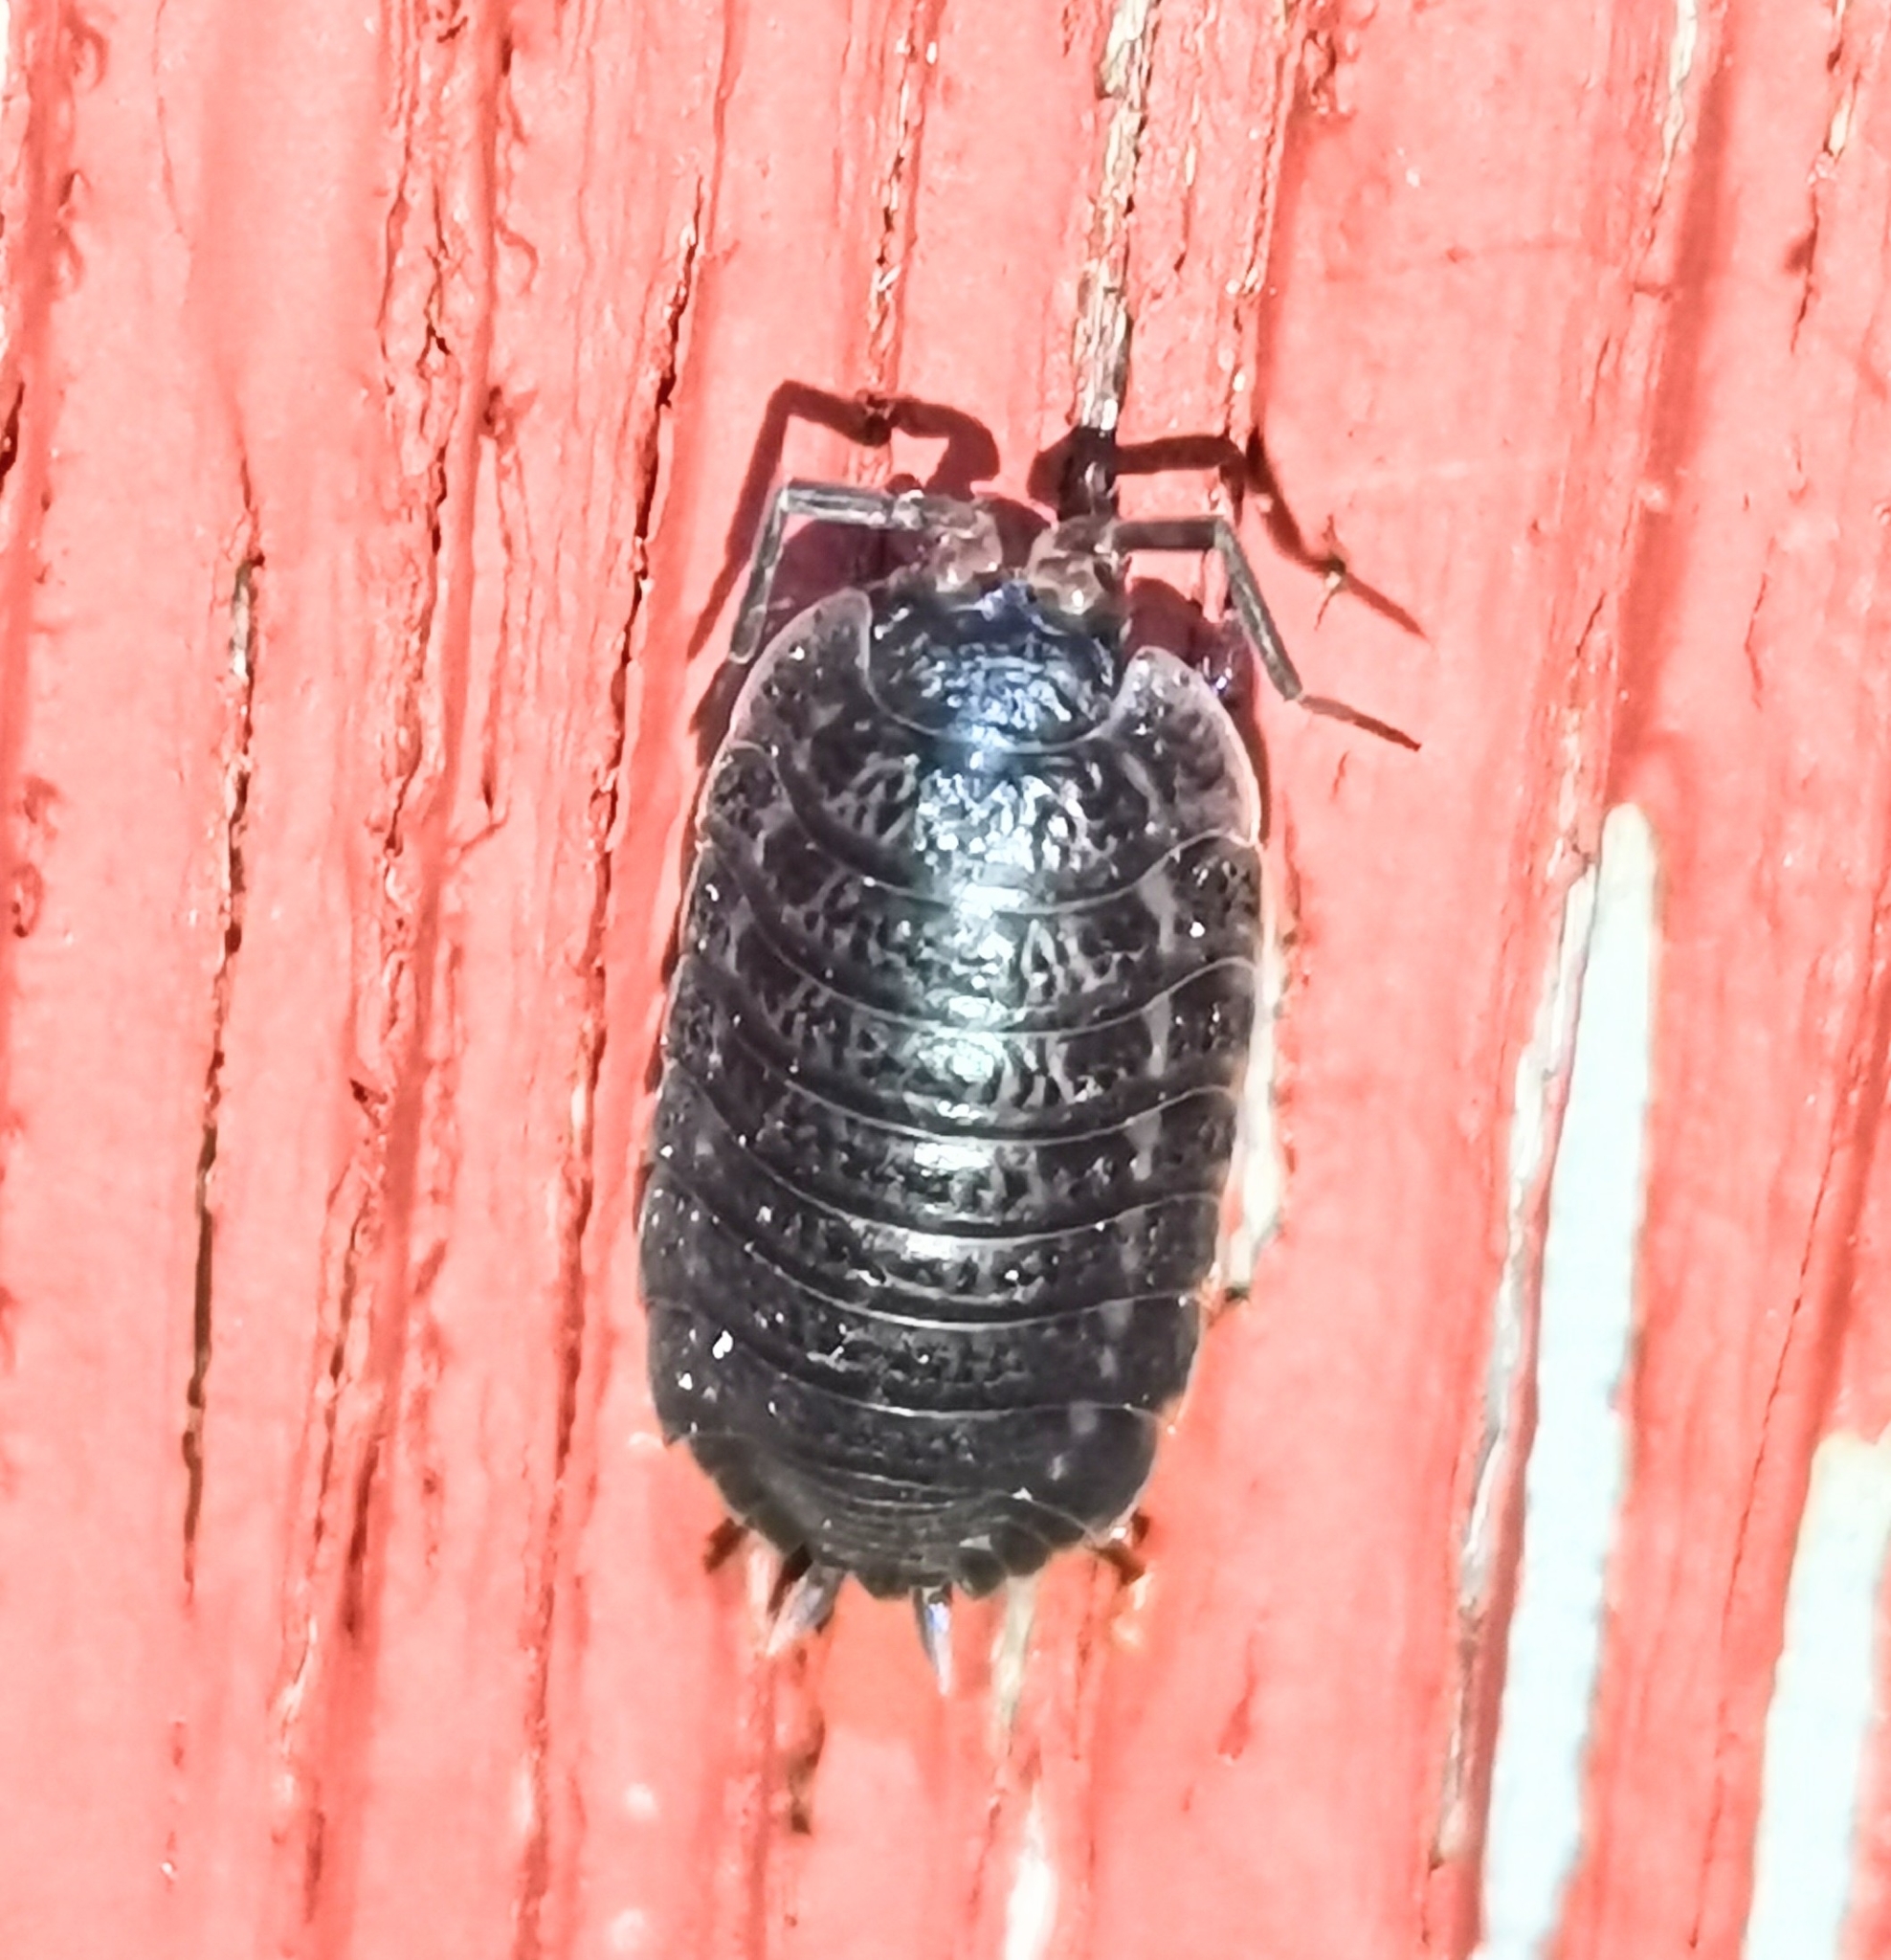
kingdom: Animalia
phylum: Arthropoda
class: Malacostraca
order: Isopoda
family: Trachelipodidae
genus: Trachelipus
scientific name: Trachelipus rathkii
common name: Isopod
